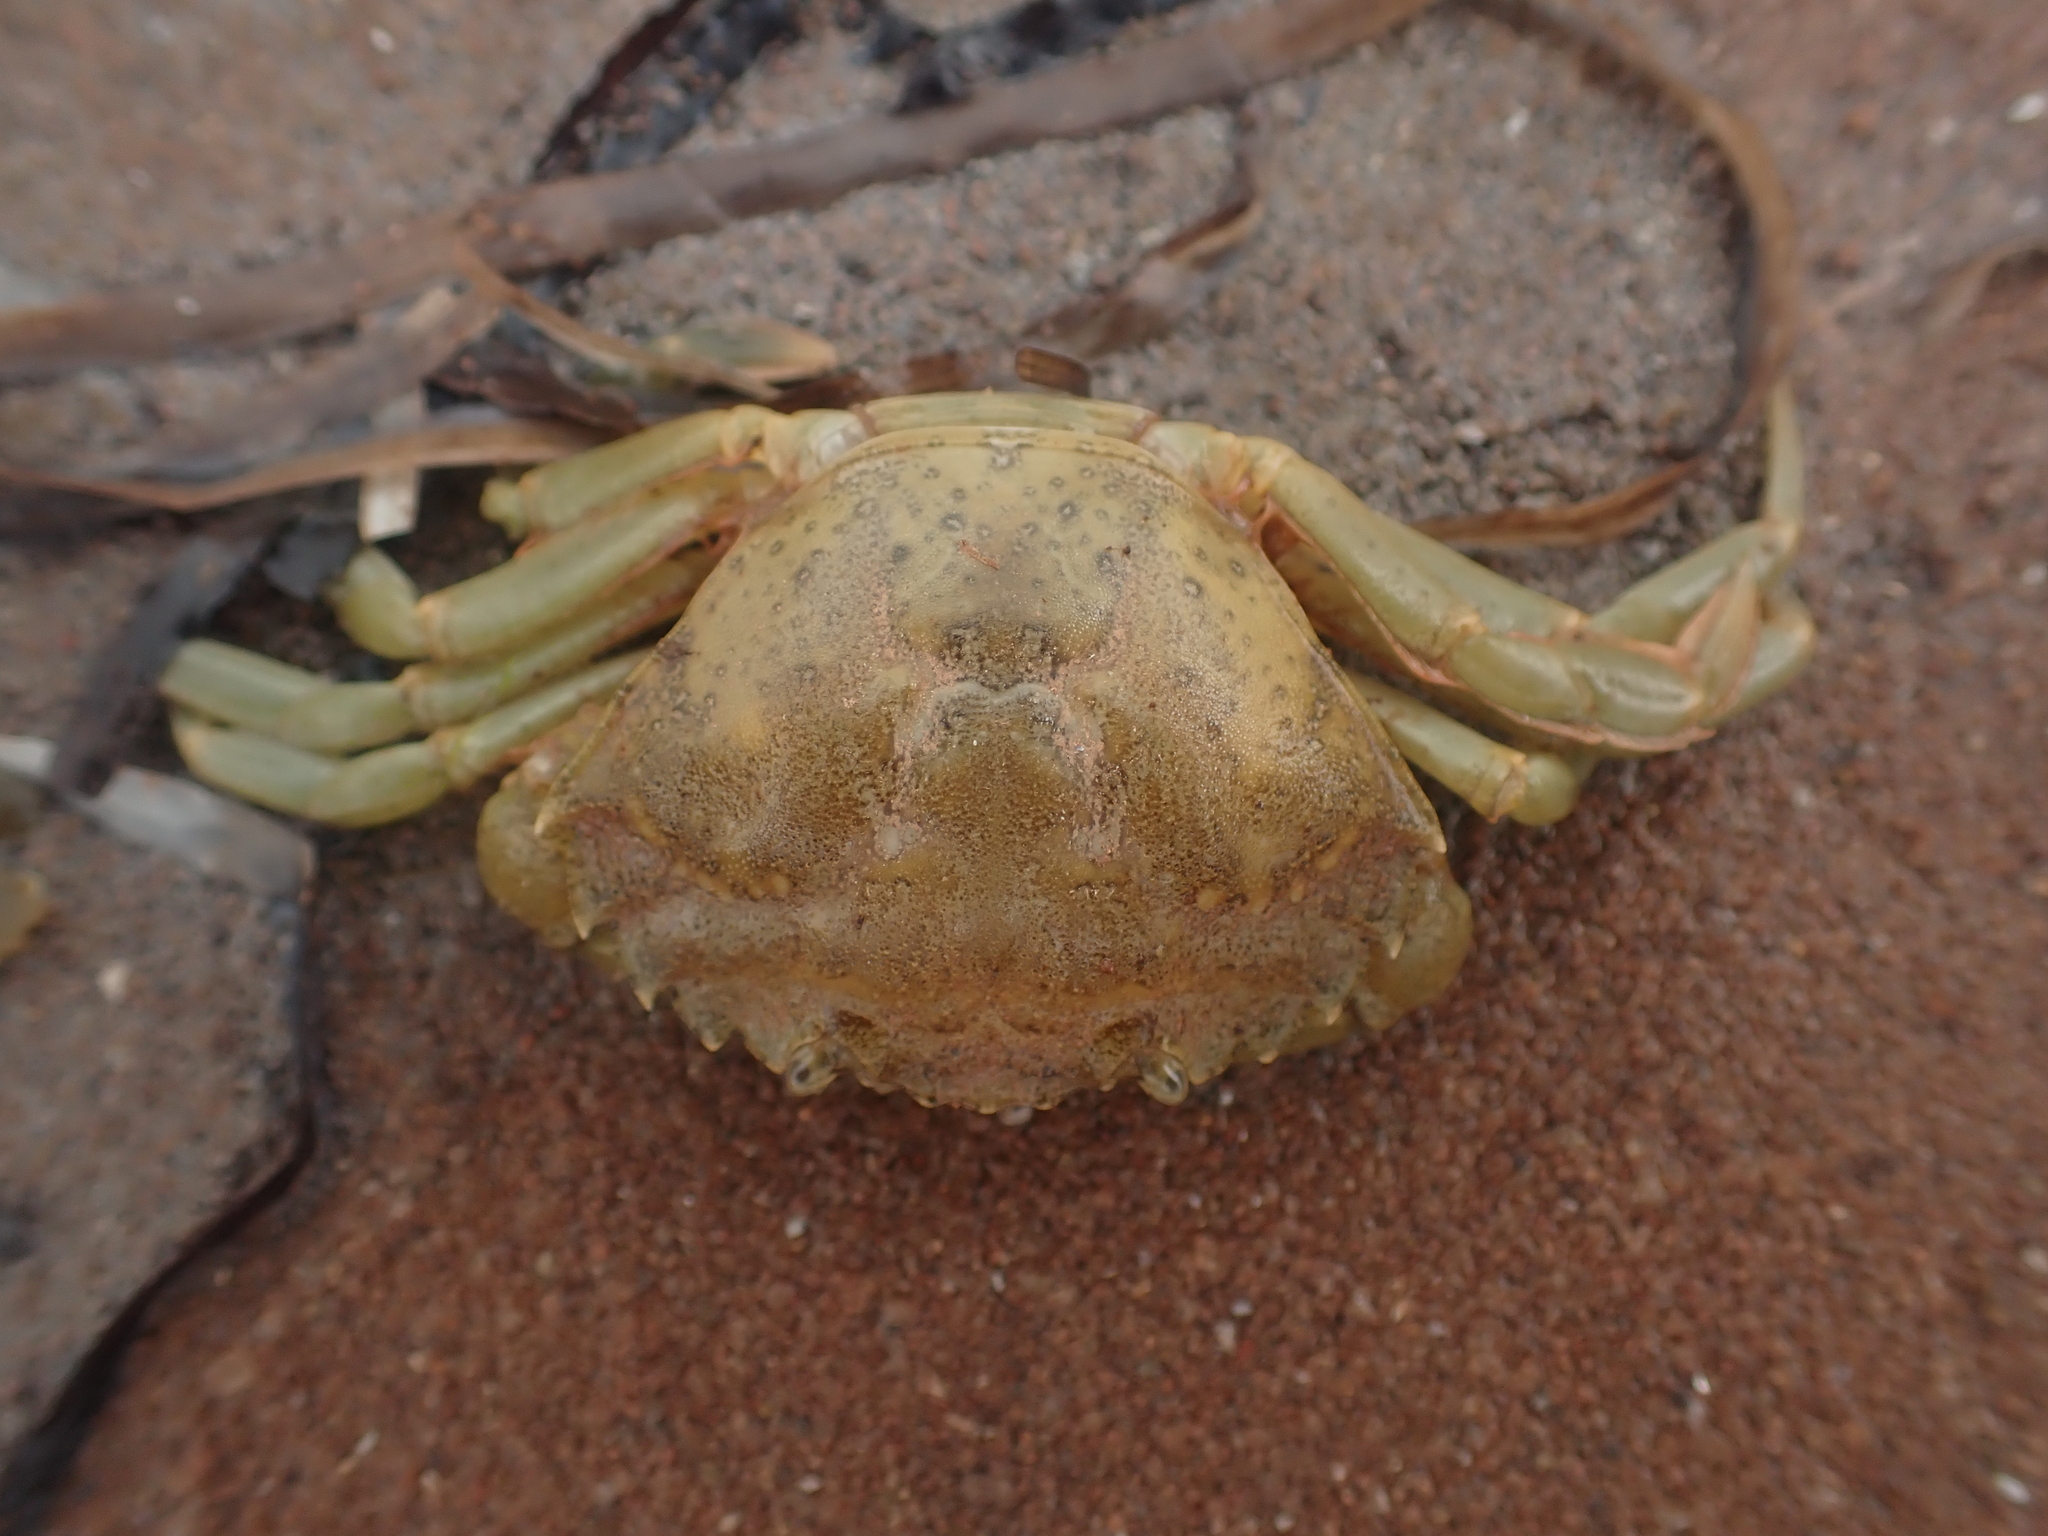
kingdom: Animalia
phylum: Arthropoda
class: Malacostraca
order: Decapoda
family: Carcinidae
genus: Carcinus
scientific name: Carcinus maenas
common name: European green crab
